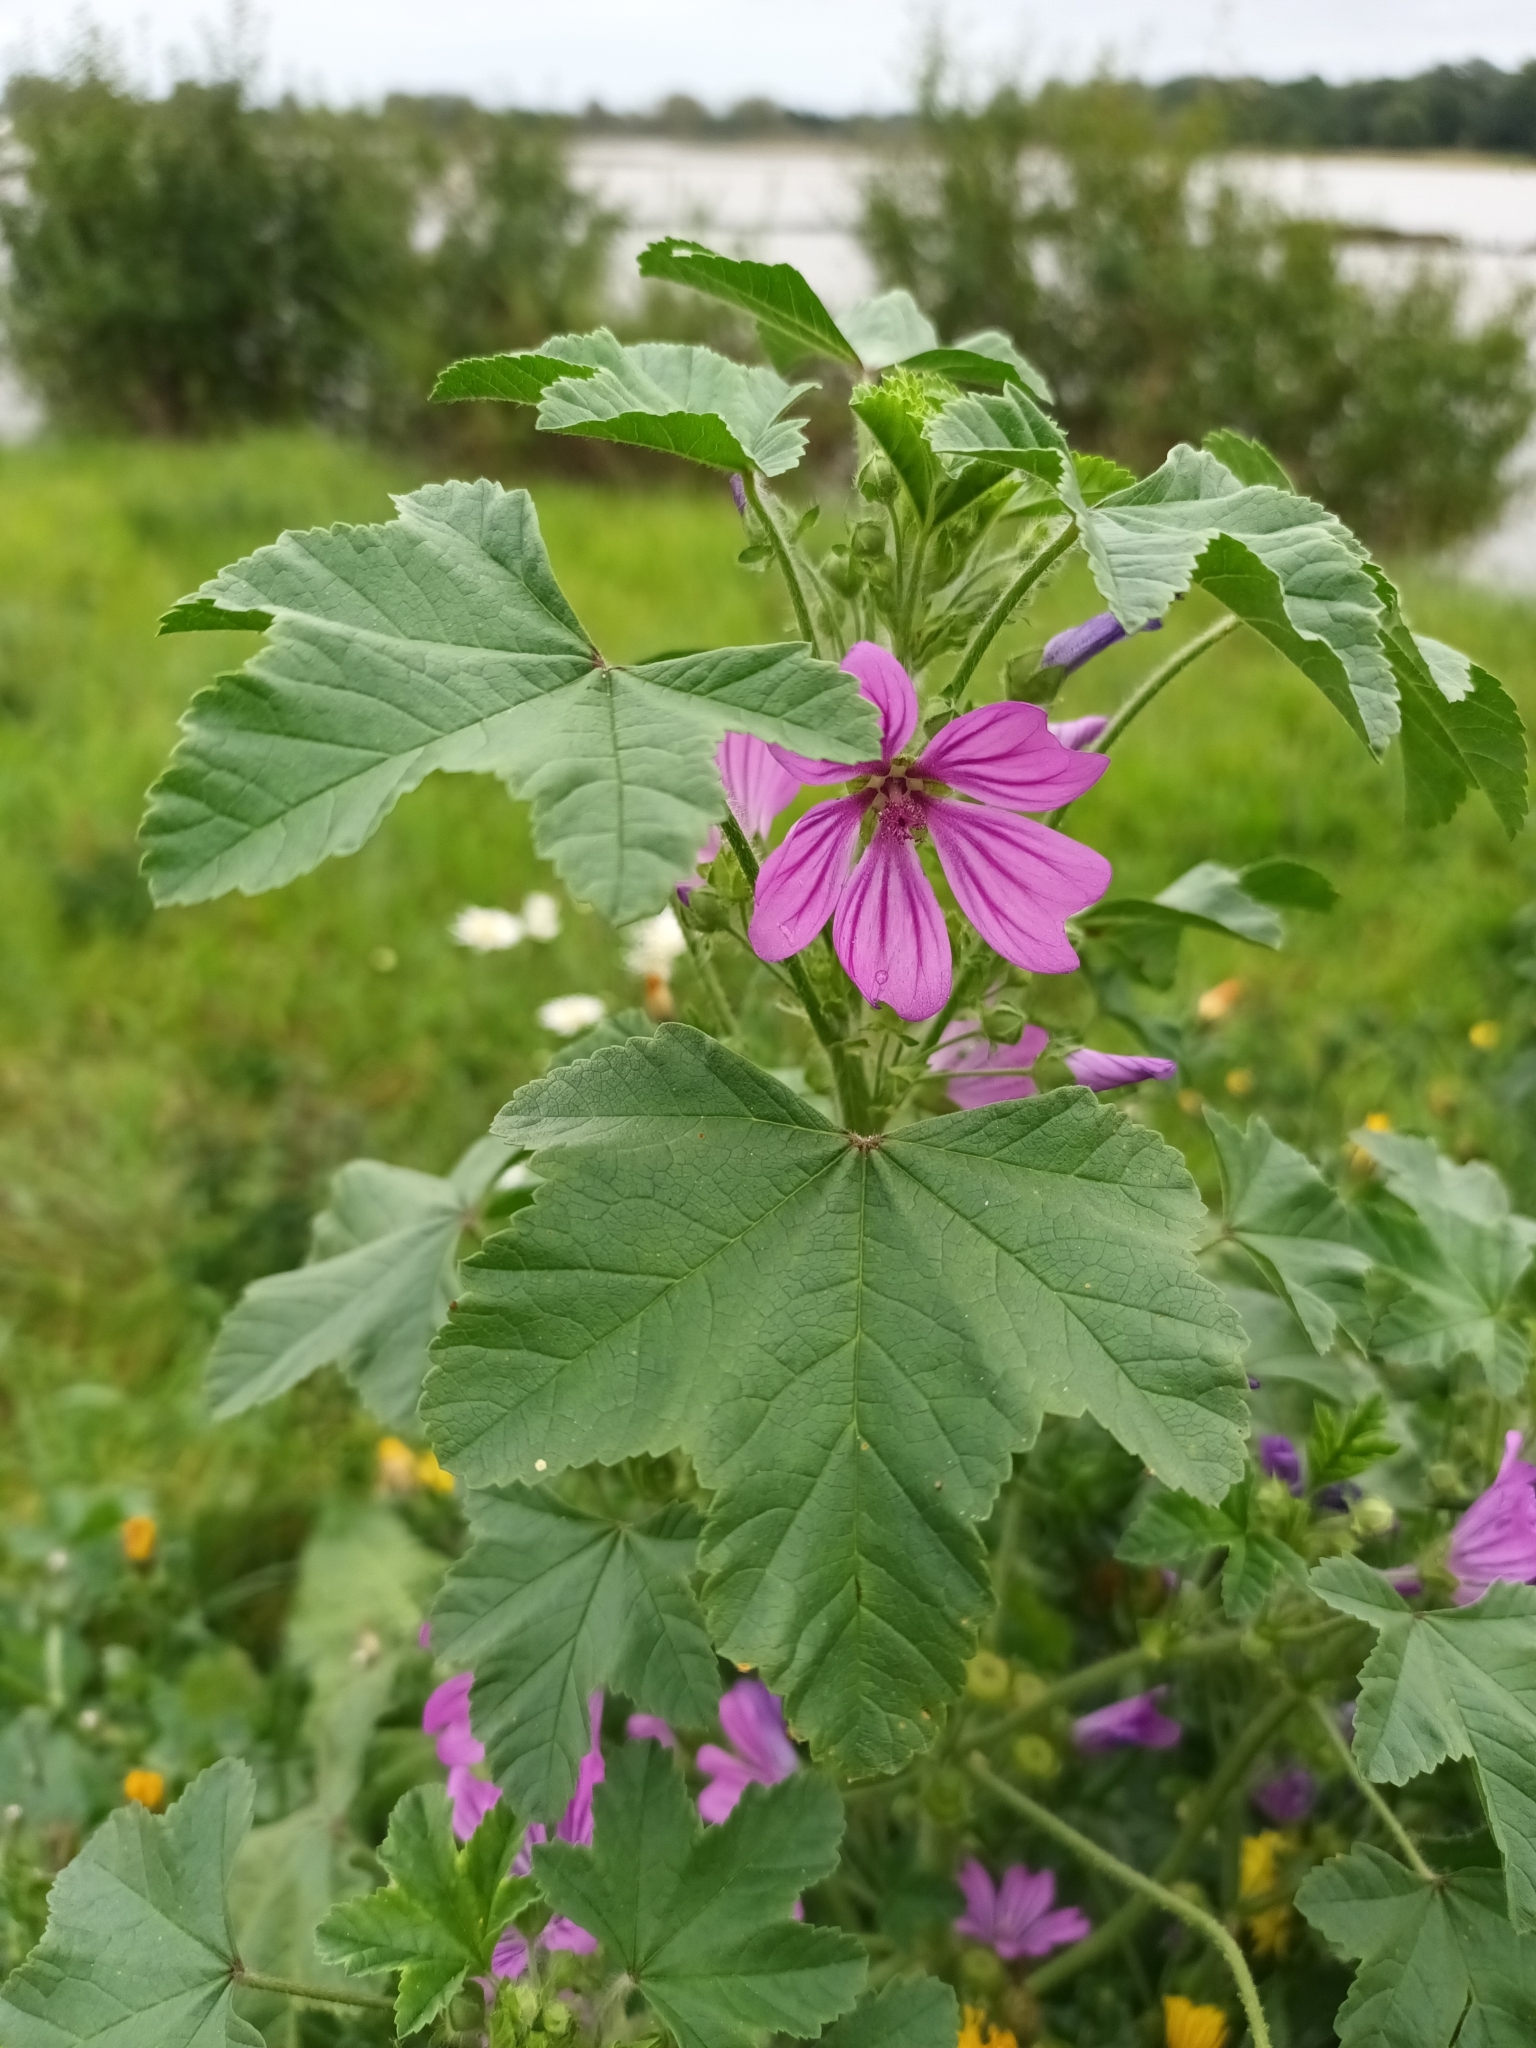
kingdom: Plantae
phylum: Tracheophyta
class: Magnoliopsida
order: Malvales
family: Malvaceae
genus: Malva
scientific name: Malva sylvestris
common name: Common mallow
